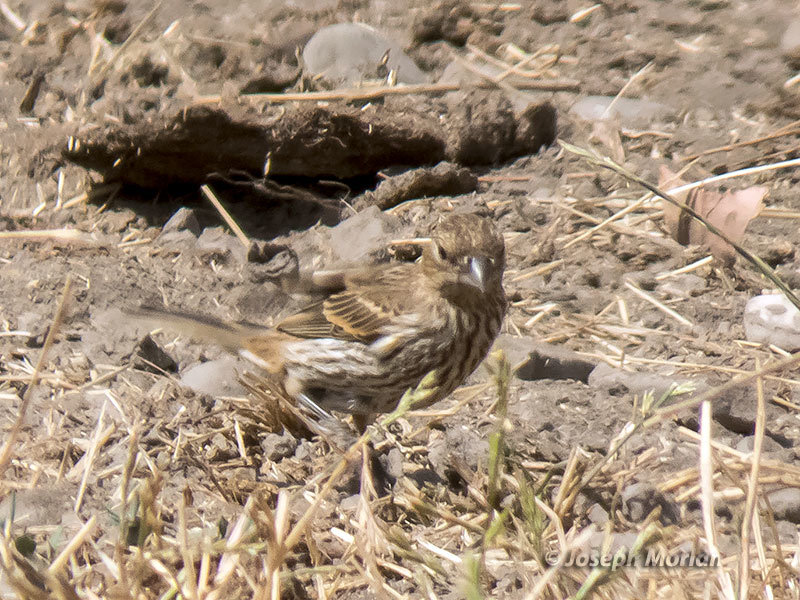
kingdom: Animalia
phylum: Chordata
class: Aves
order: Passeriformes
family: Fringillidae
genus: Haemorhous
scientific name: Haemorhous mexicanus
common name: House finch
